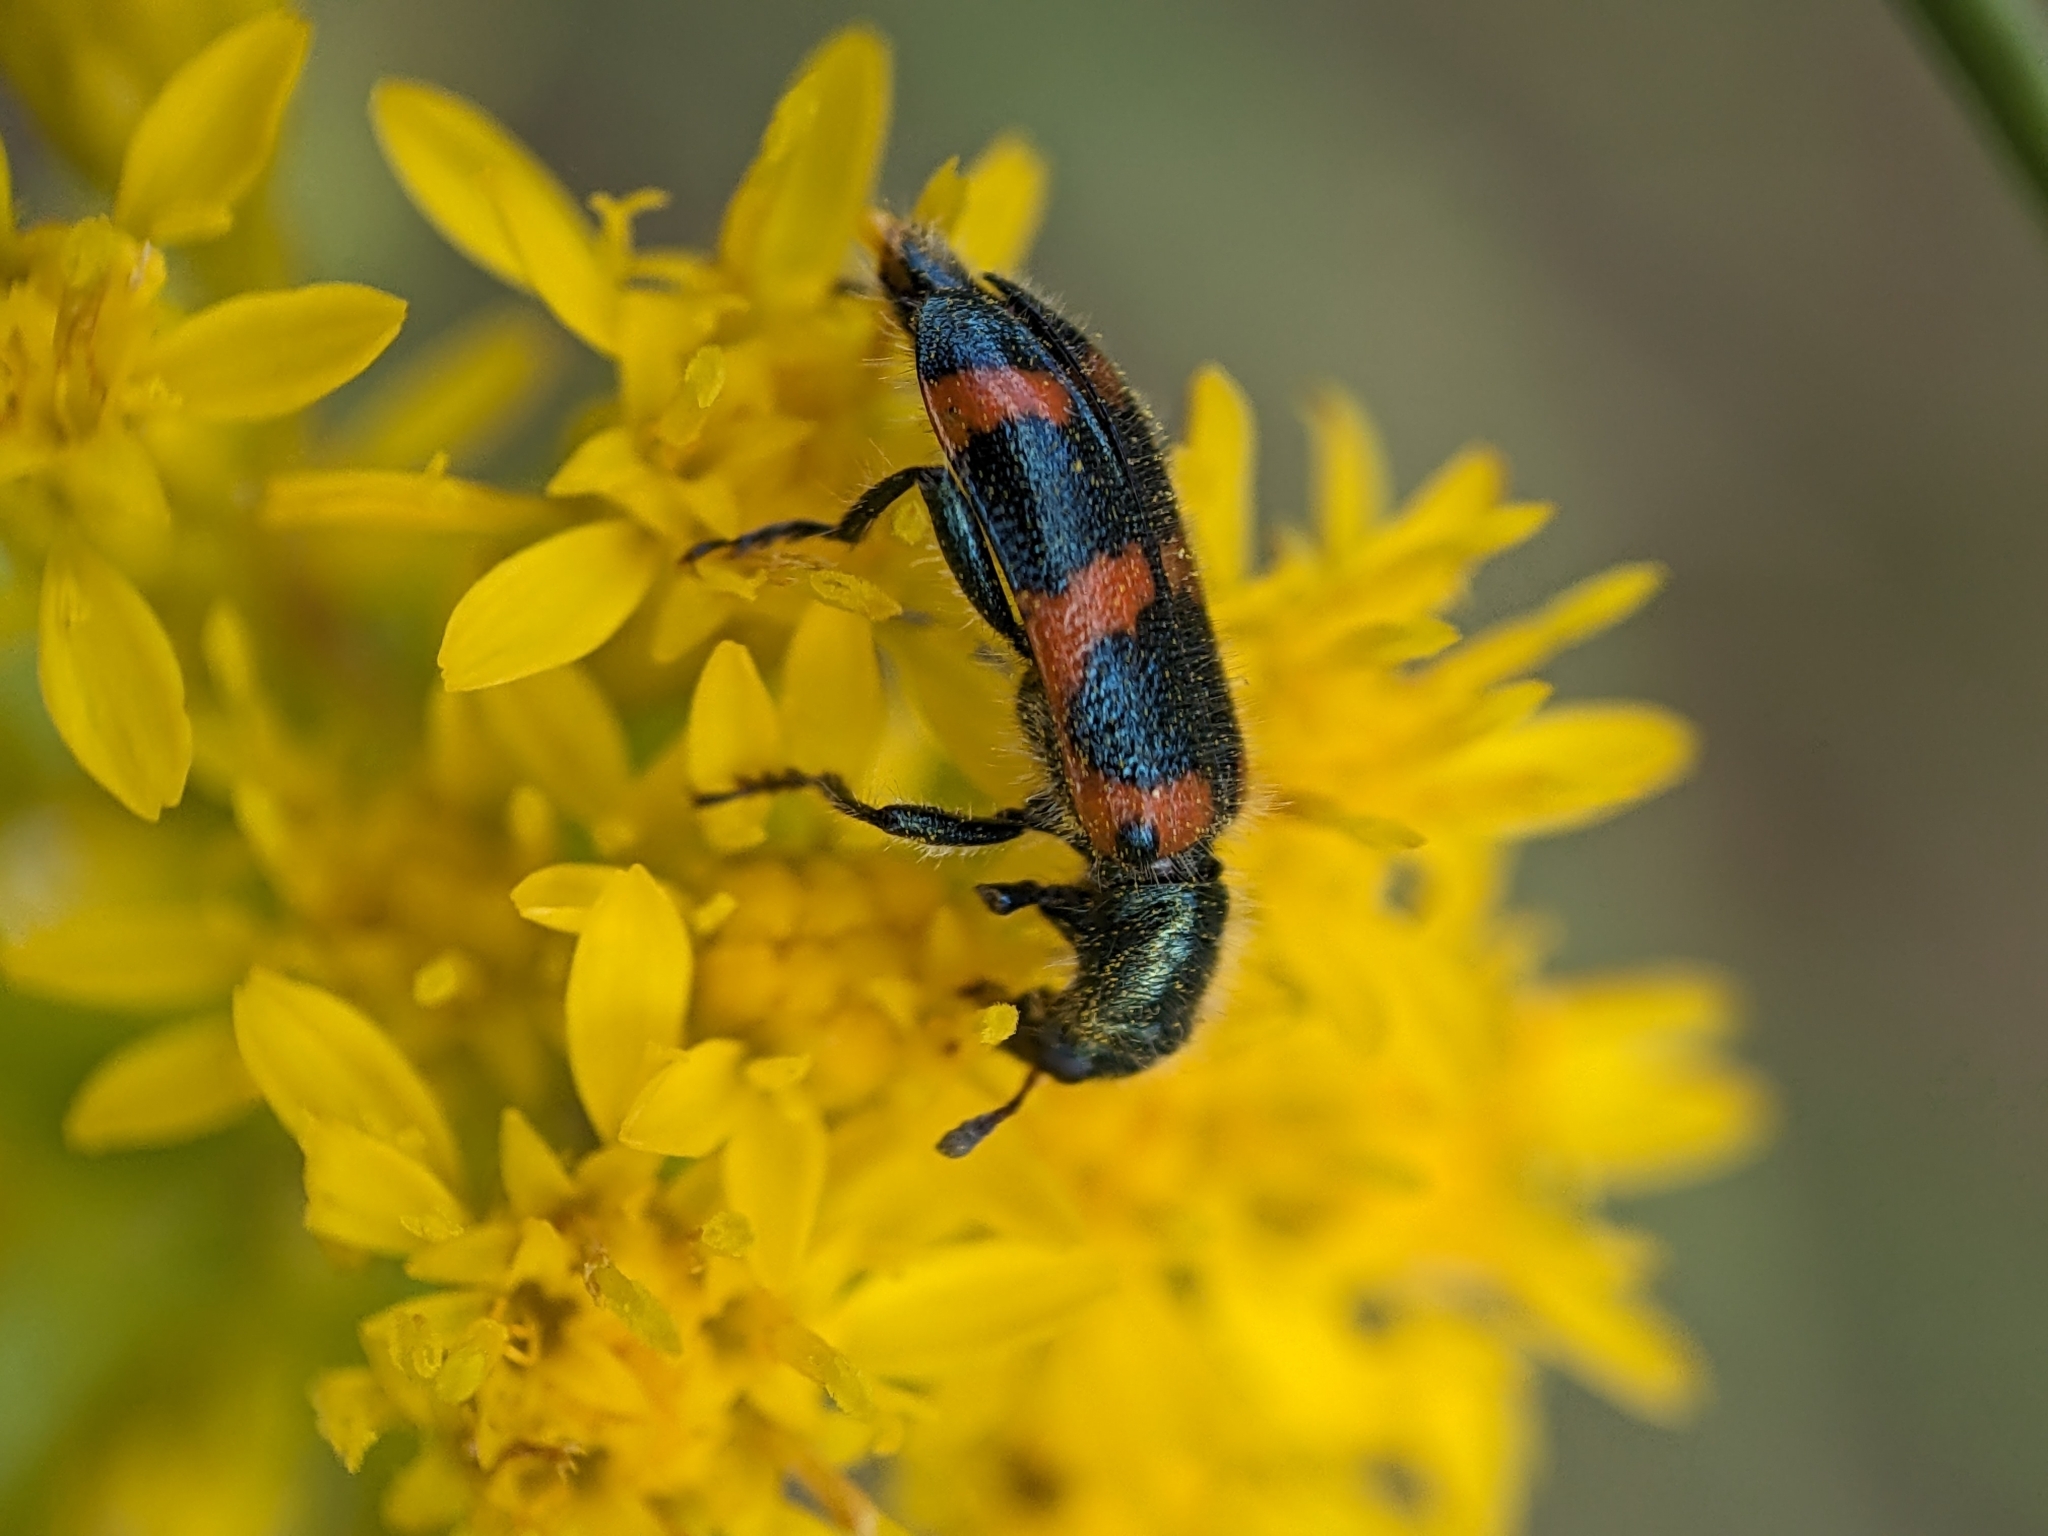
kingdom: Animalia
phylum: Arthropoda
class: Insecta
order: Coleoptera
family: Cleridae
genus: Trichodes
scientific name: Trichodes nutalli
